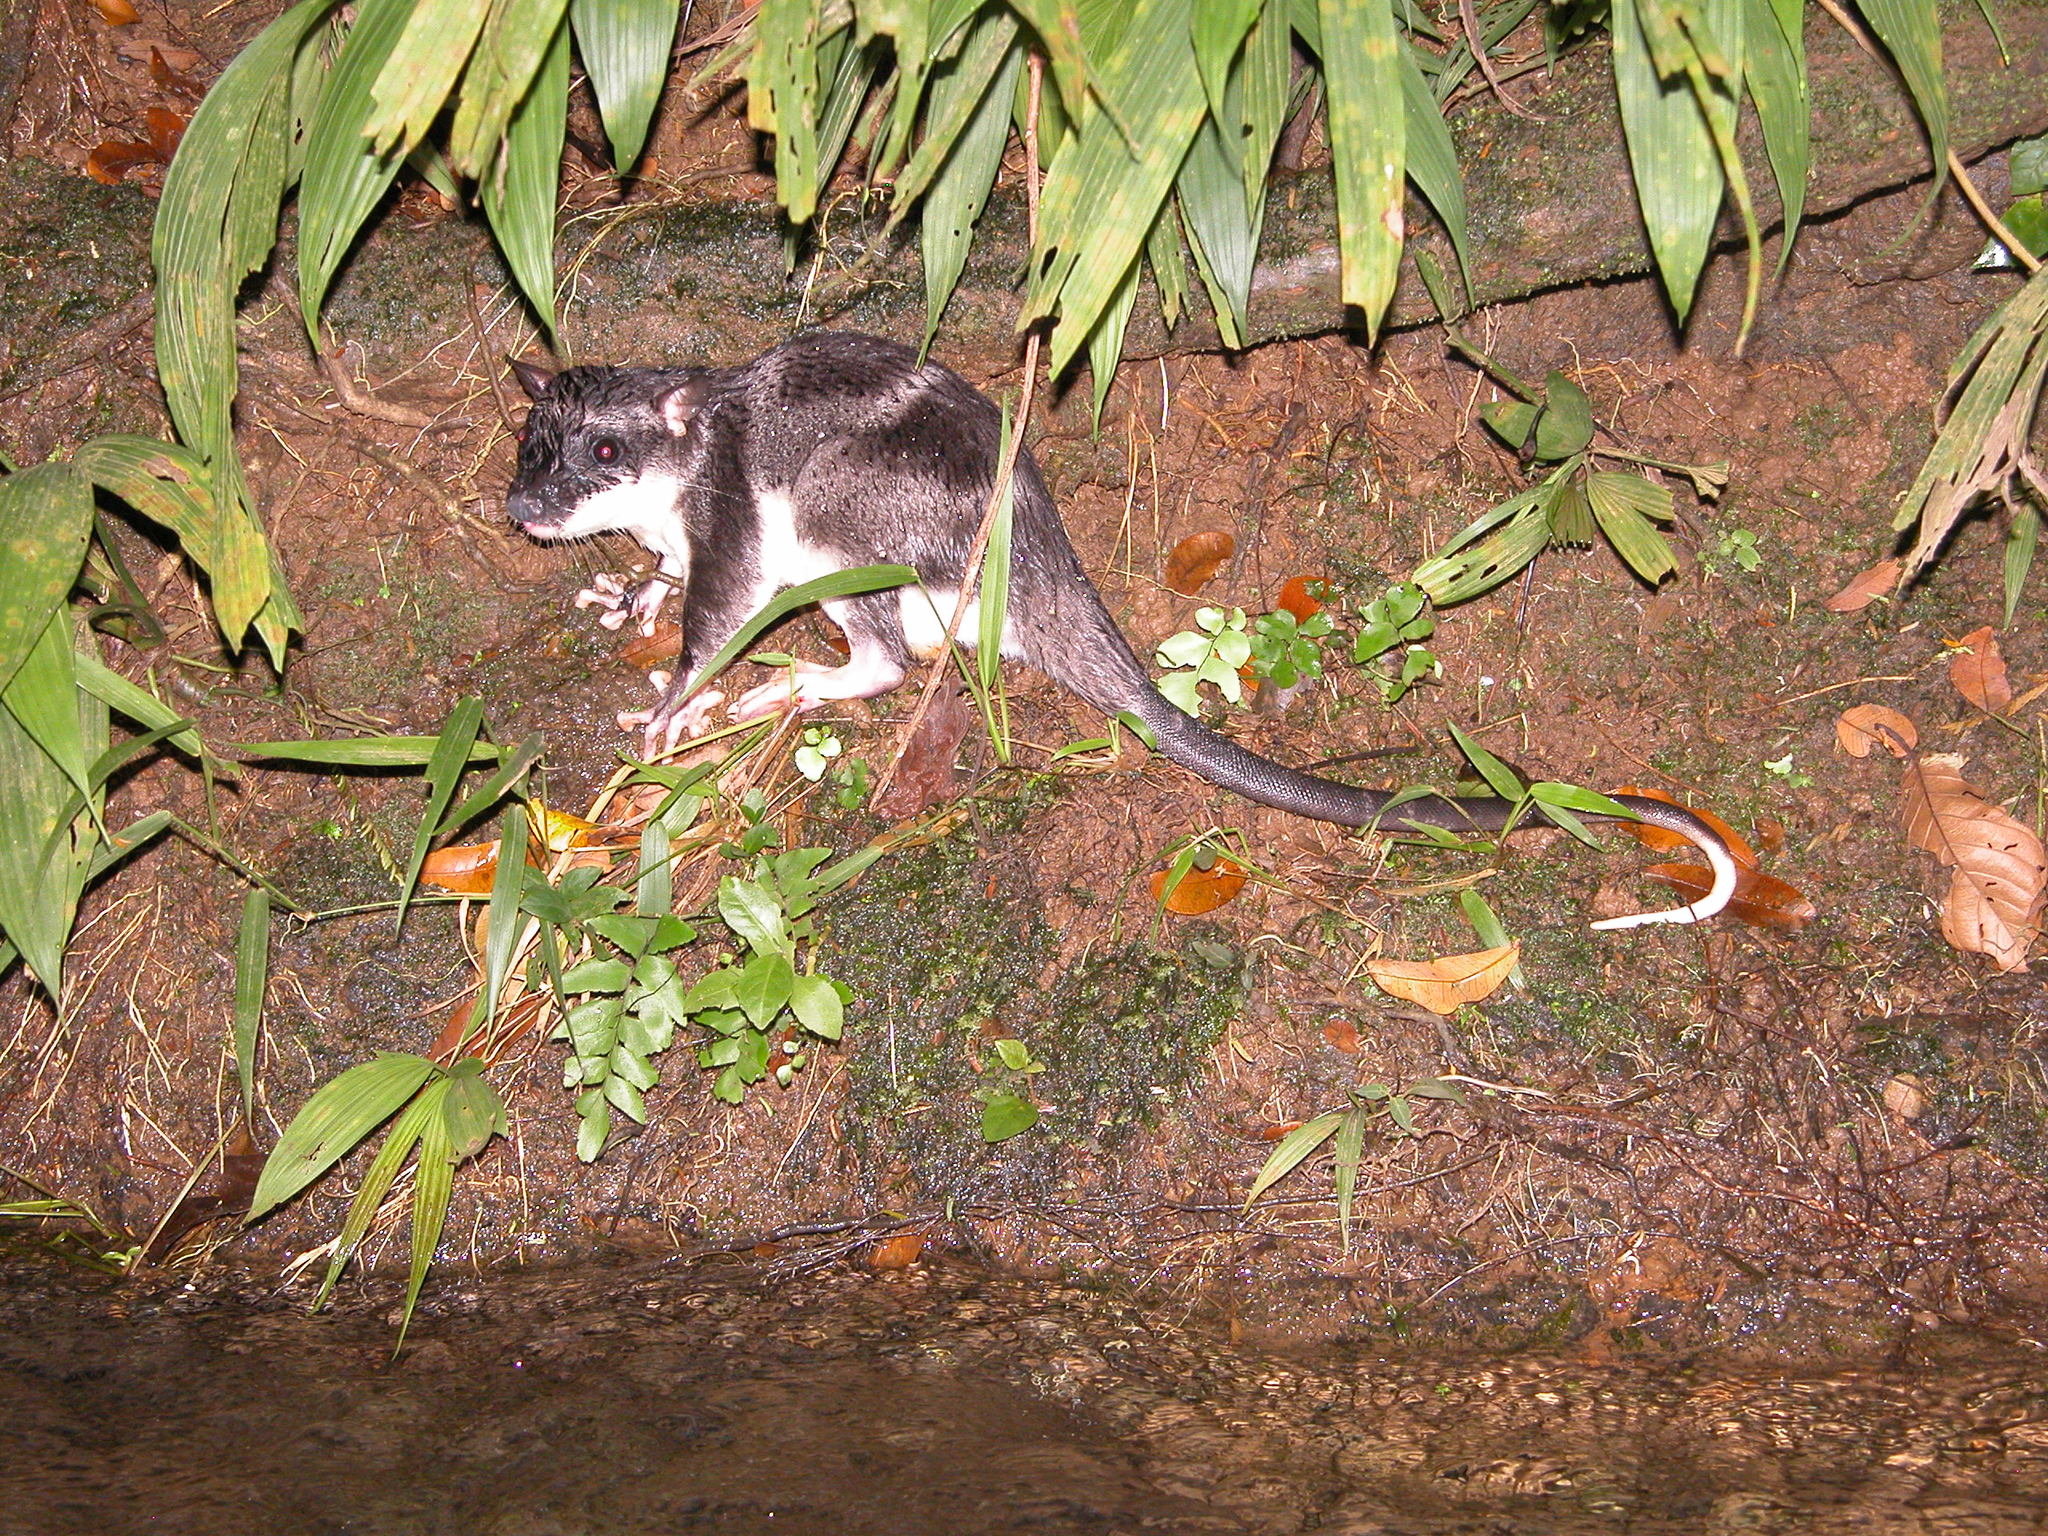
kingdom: Animalia
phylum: Chordata
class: Mammalia
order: Didelphimorphia
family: Didelphidae
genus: Chironectes
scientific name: Chironectes minimus
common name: Water opossum
